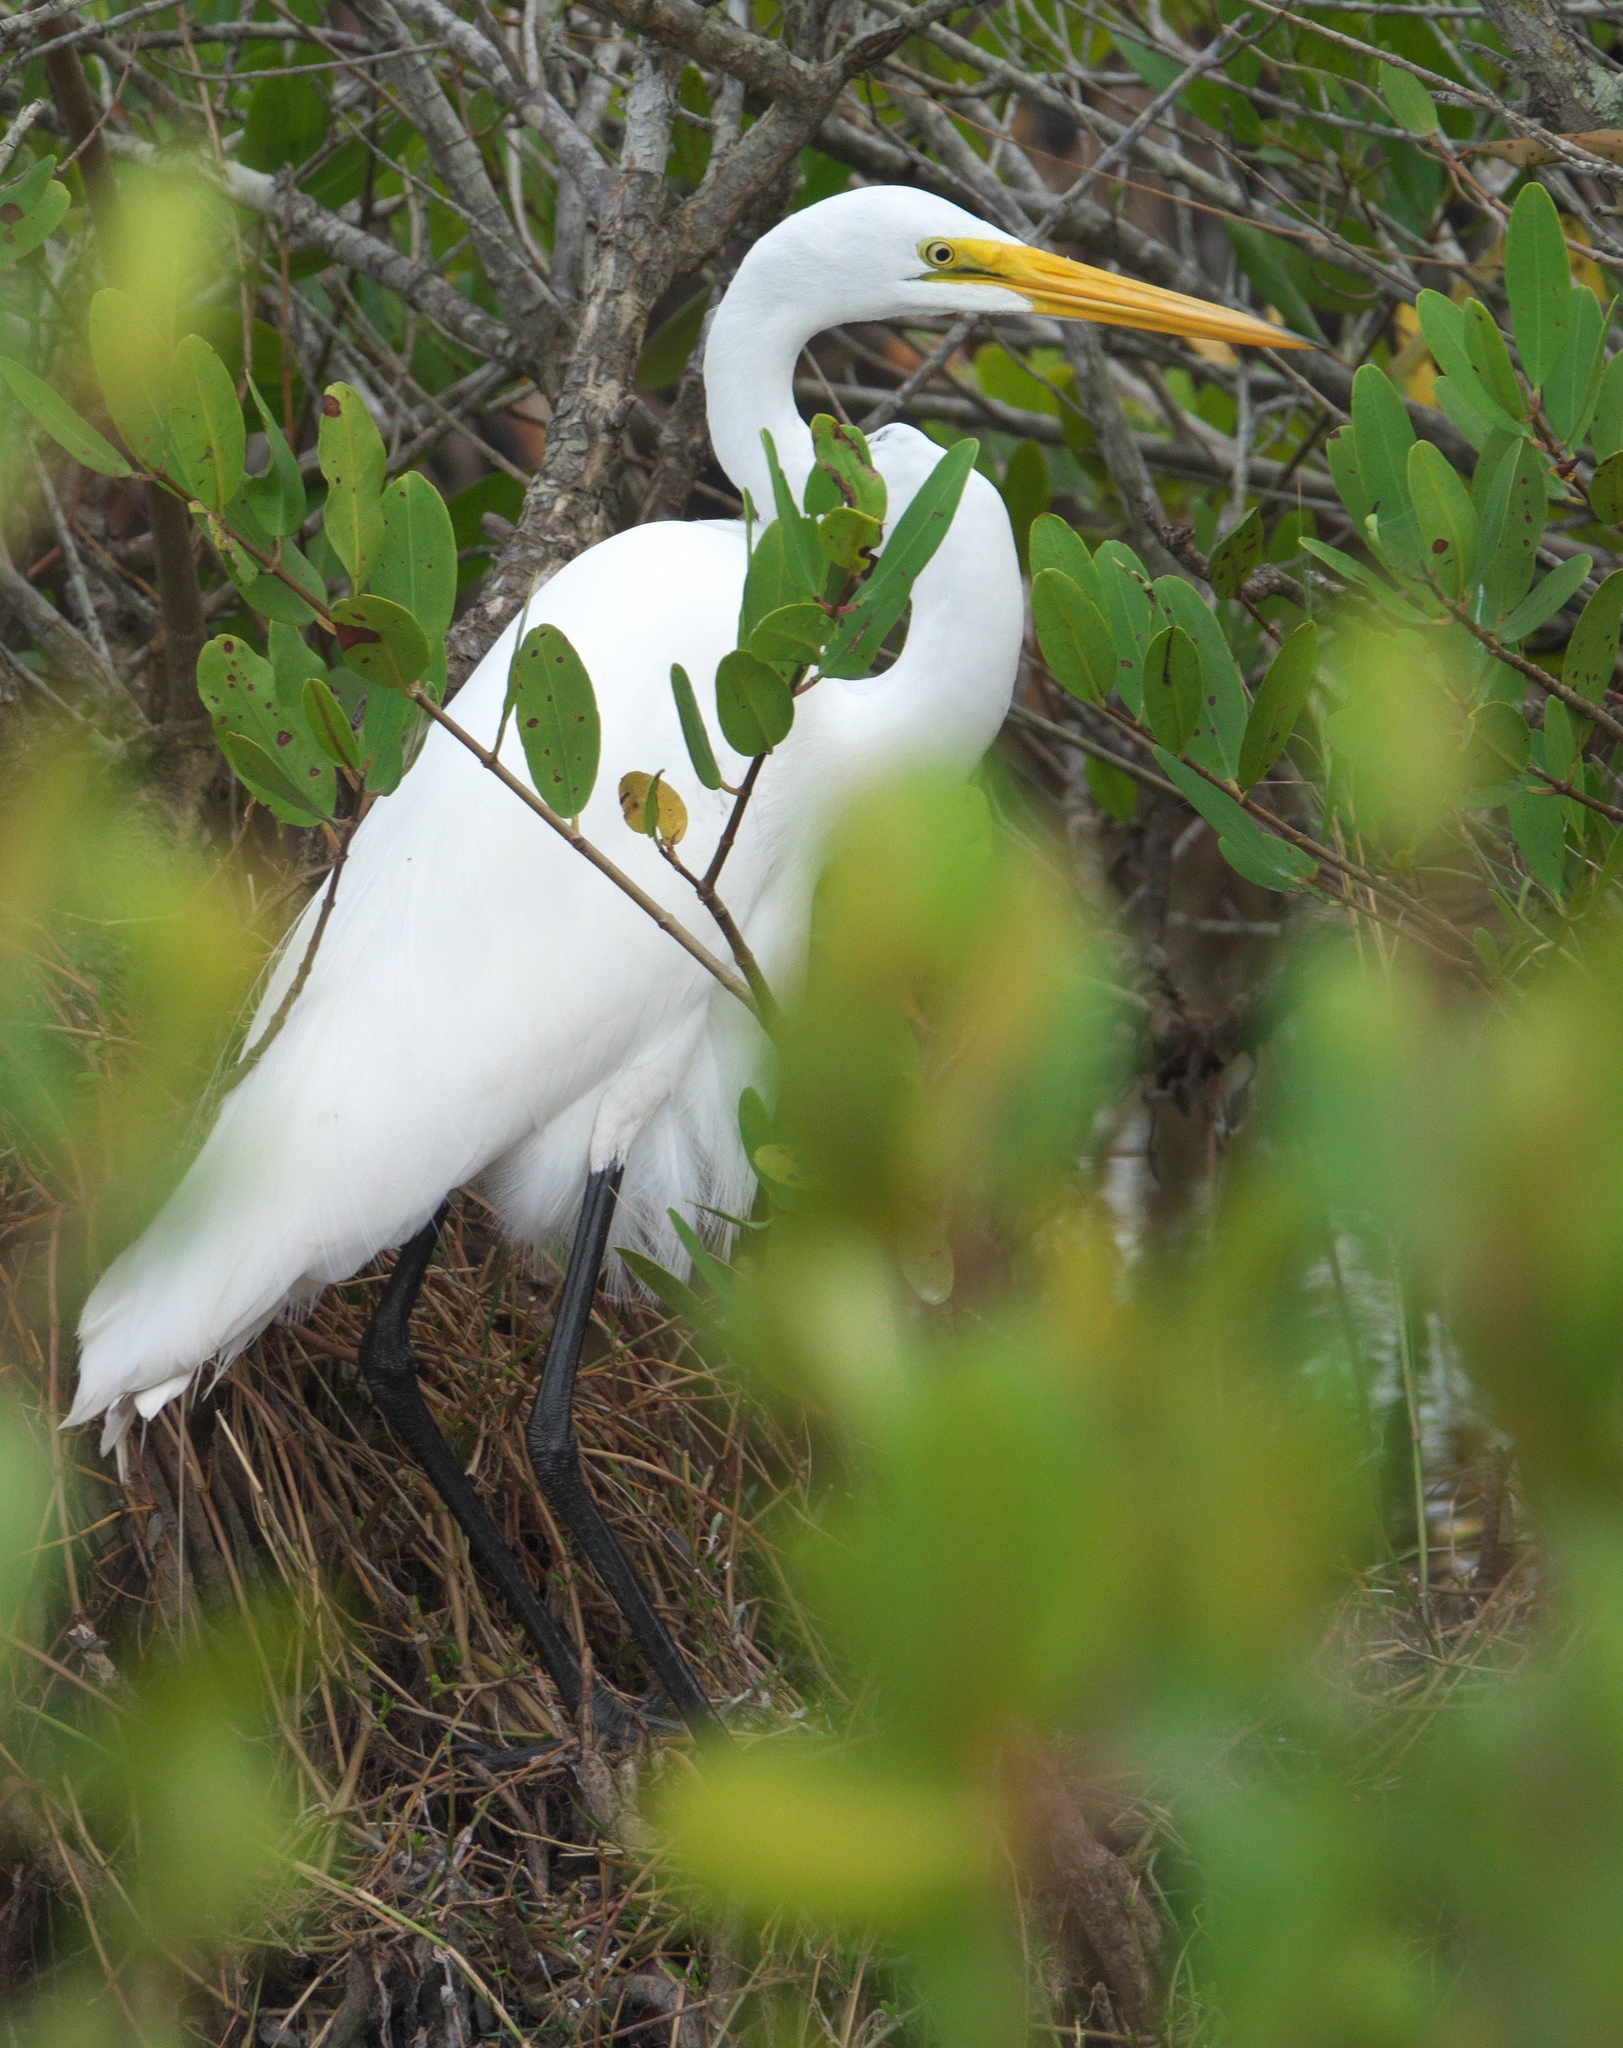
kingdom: Animalia
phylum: Chordata
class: Aves
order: Pelecaniformes
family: Ardeidae
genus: Ardea
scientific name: Ardea alba
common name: Great egret
